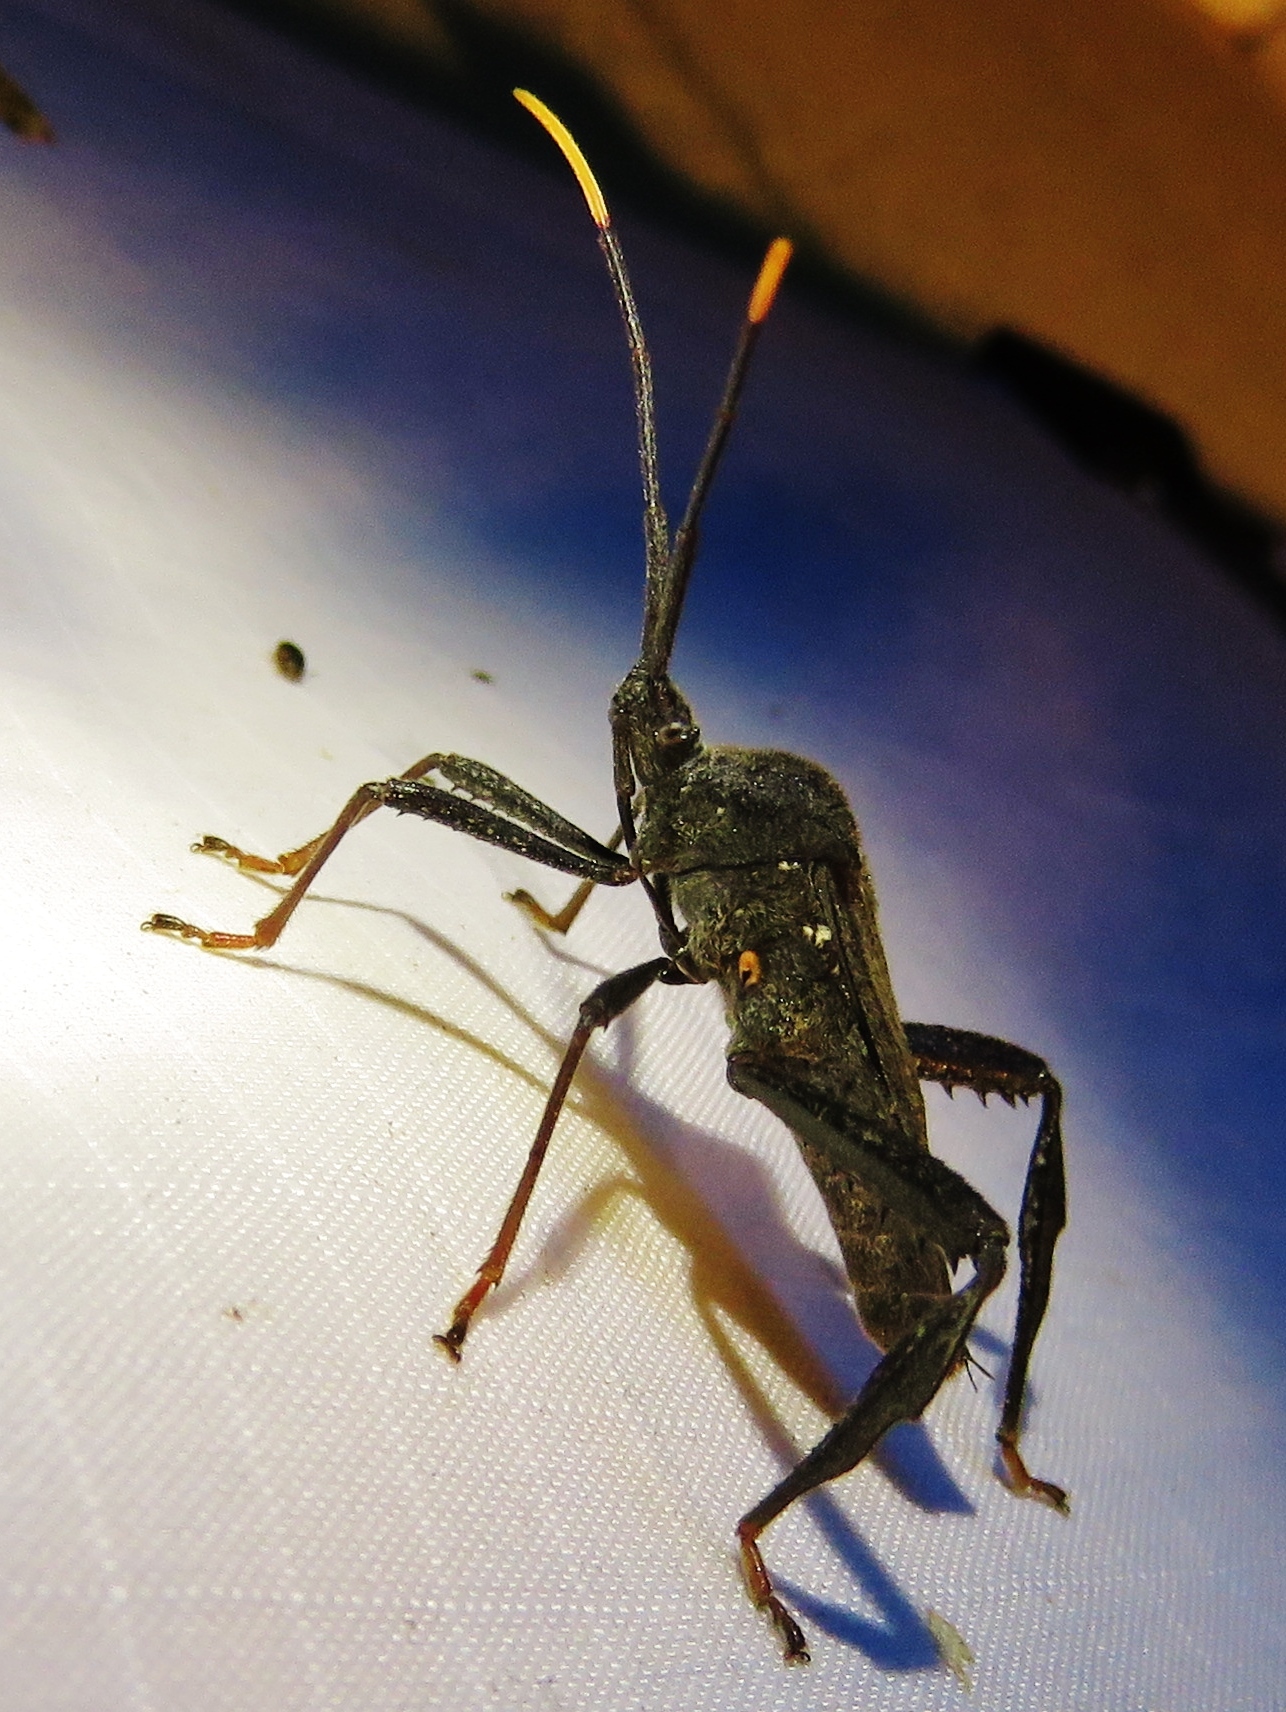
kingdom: Animalia
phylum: Arthropoda
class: Insecta
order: Hemiptera
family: Coreidae
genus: Acanthocephala
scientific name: Acanthocephala terminalis
